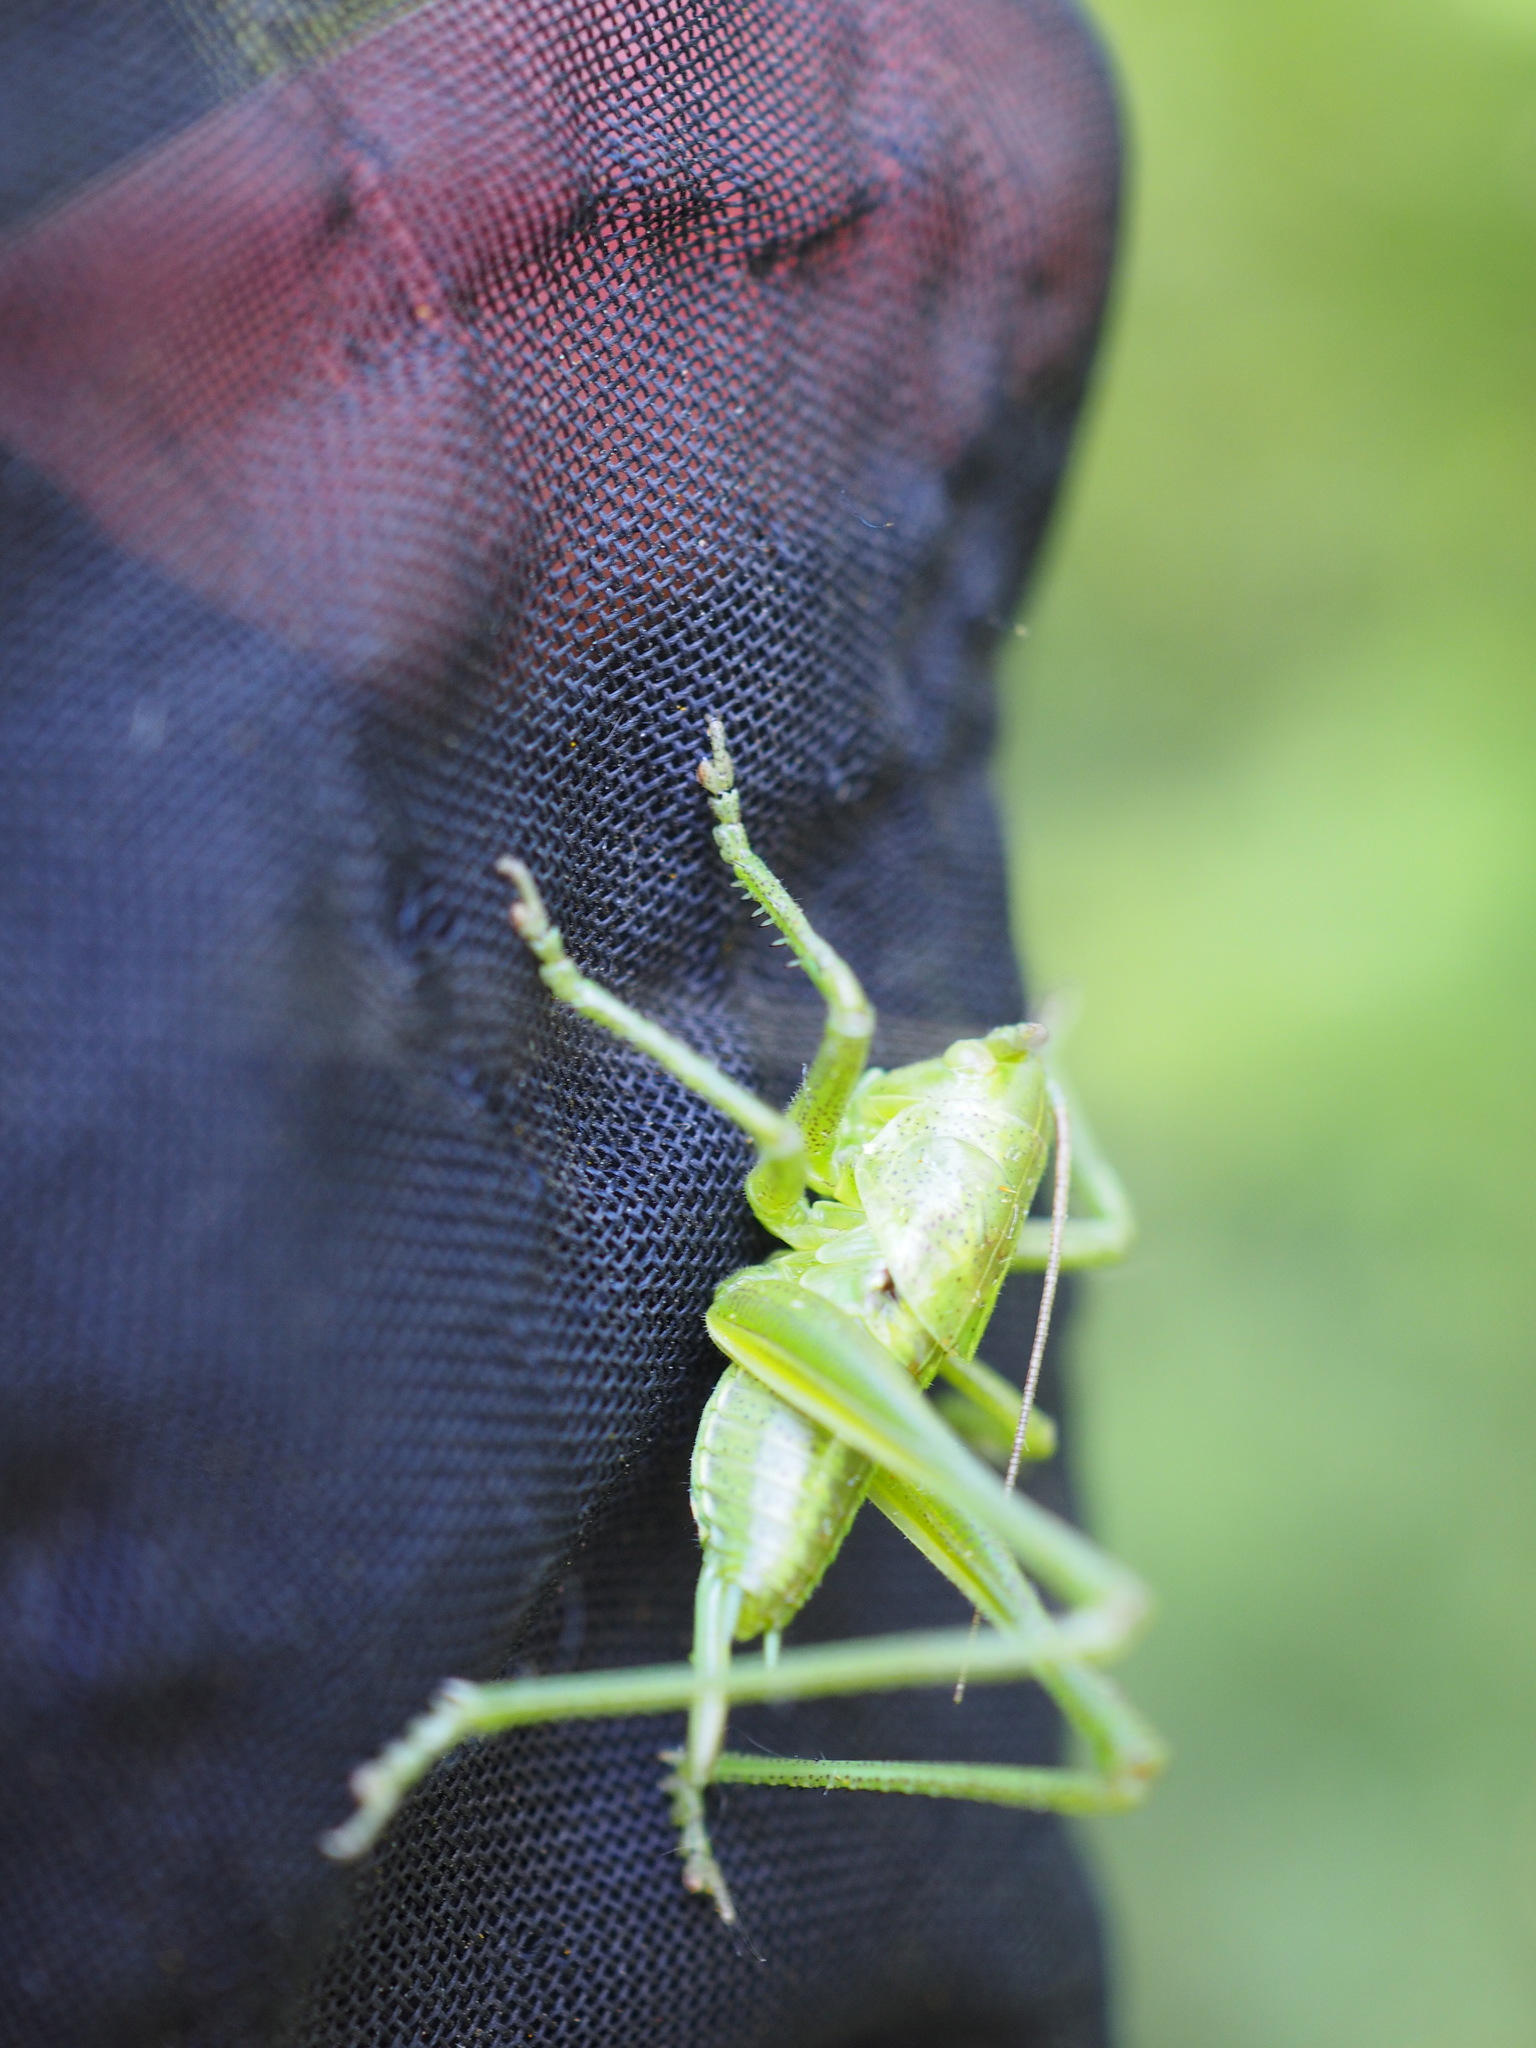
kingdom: Animalia
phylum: Arthropoda
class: Insecta
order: Orthoptera
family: Tettigoniidae
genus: Tettigonia
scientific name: Tettigonia viridissima
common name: Great green bush-cricket
